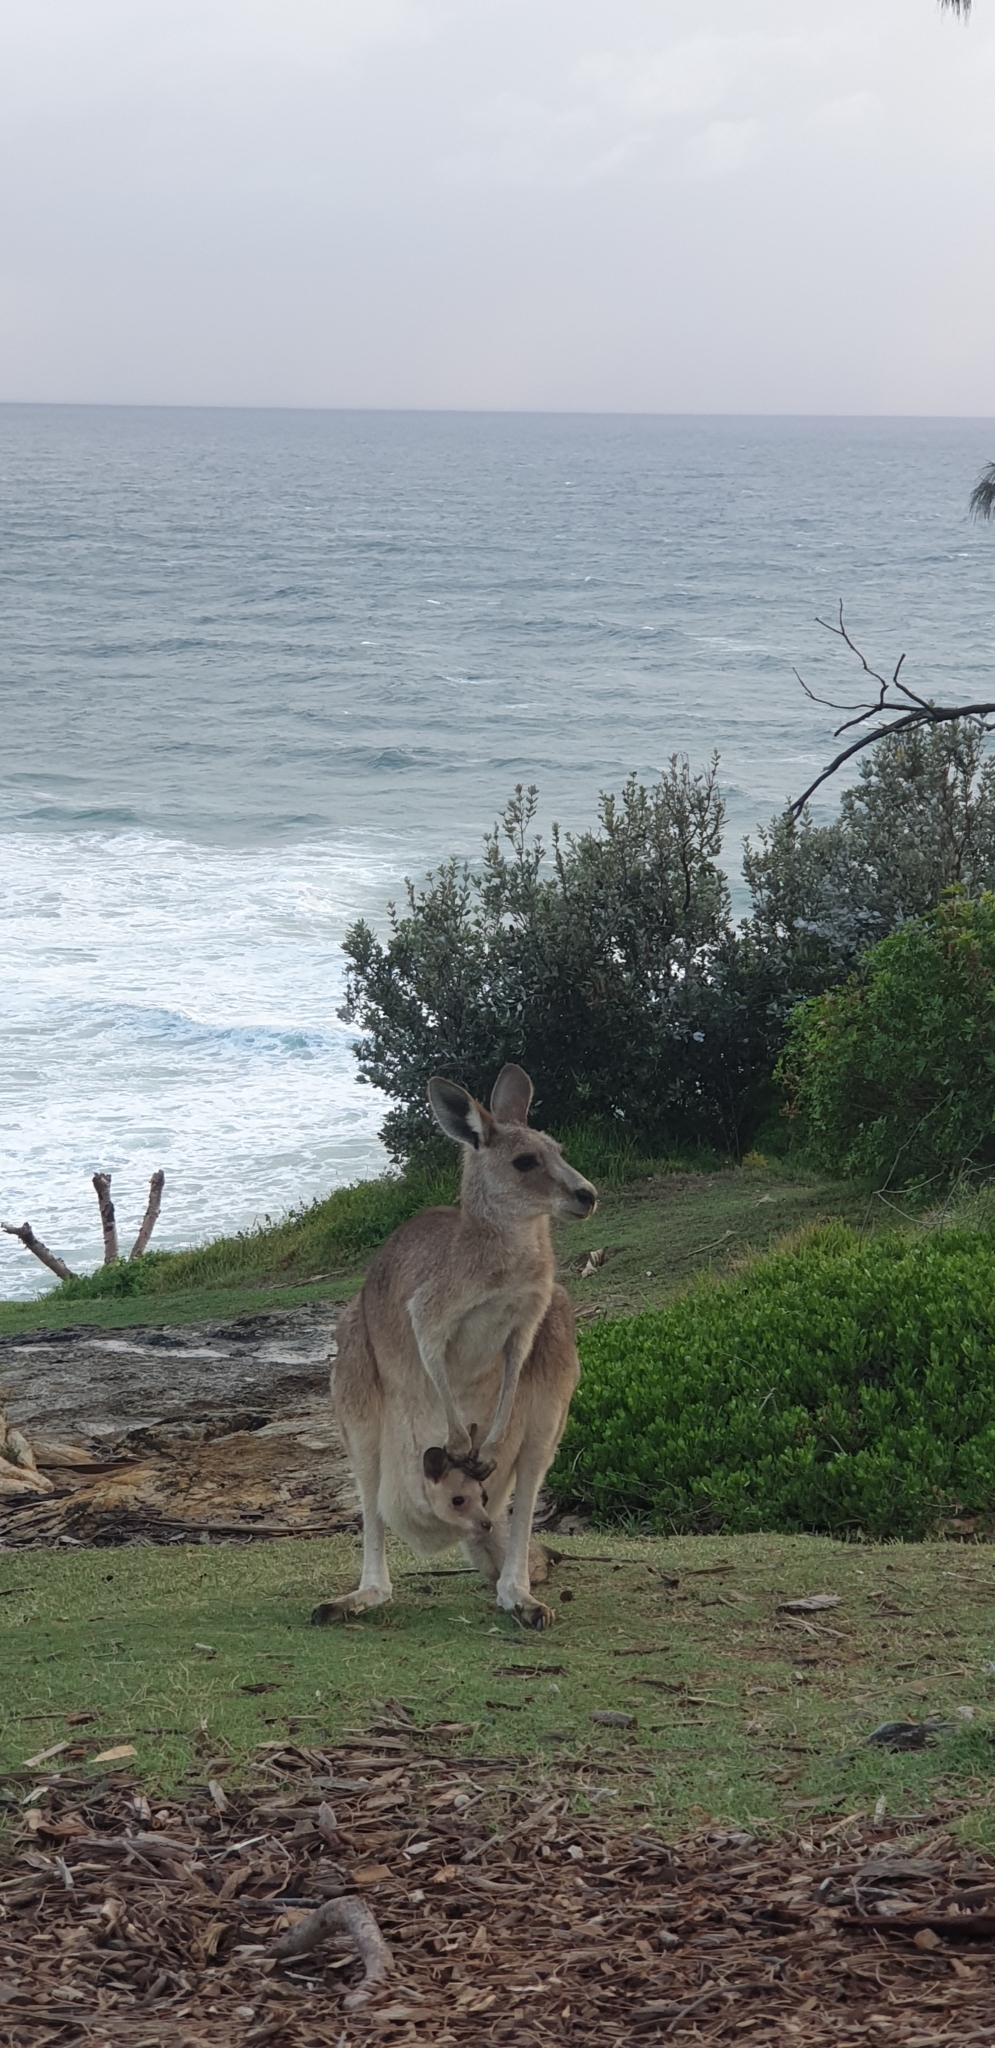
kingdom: Animalia
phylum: Chordata
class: Mammalia
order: Diprotodontia
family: Macropodidae
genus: Macropus
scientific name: Macropus giganteus
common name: Eastern grey kangaroo
